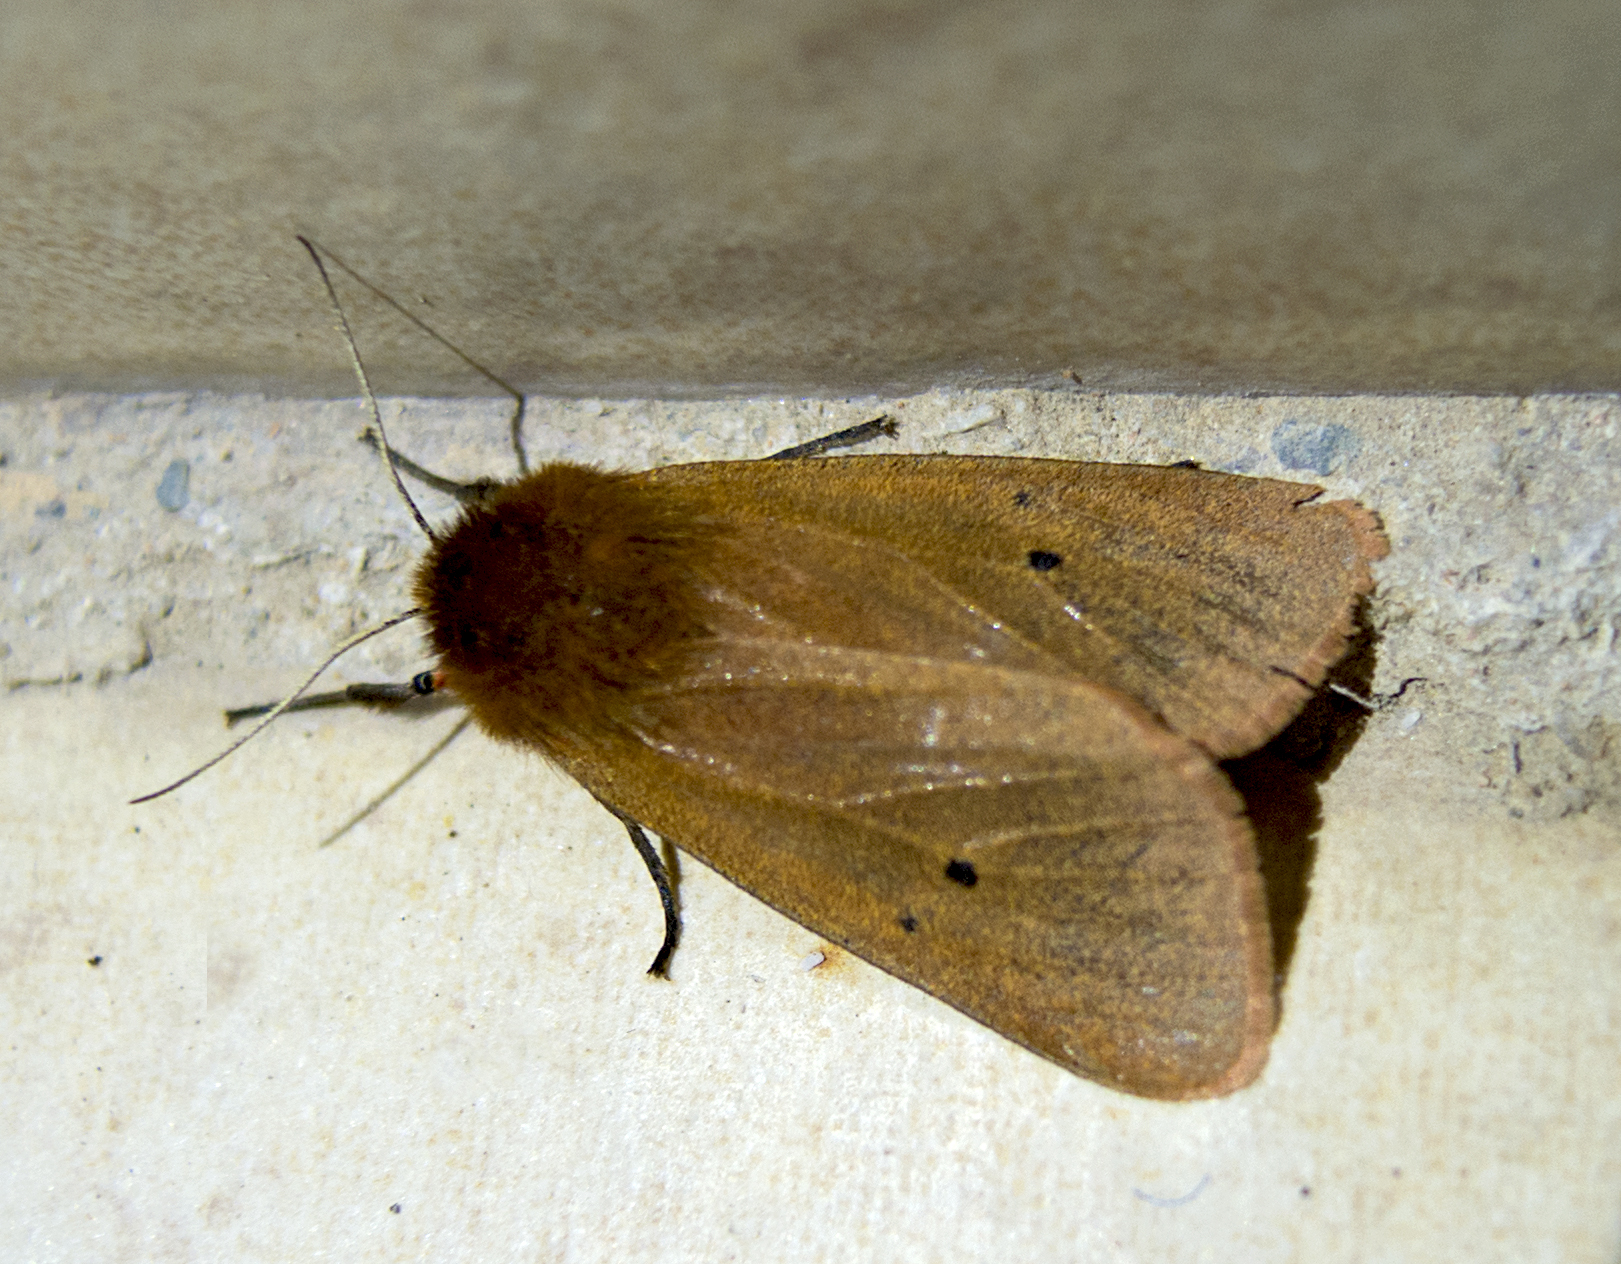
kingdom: Animalia
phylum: Arthropoda
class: Insecta
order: Lepidoptera
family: Erebidae
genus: Phragmatobia
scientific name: Phragmatobia fuliginosa
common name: Ruby tiger
